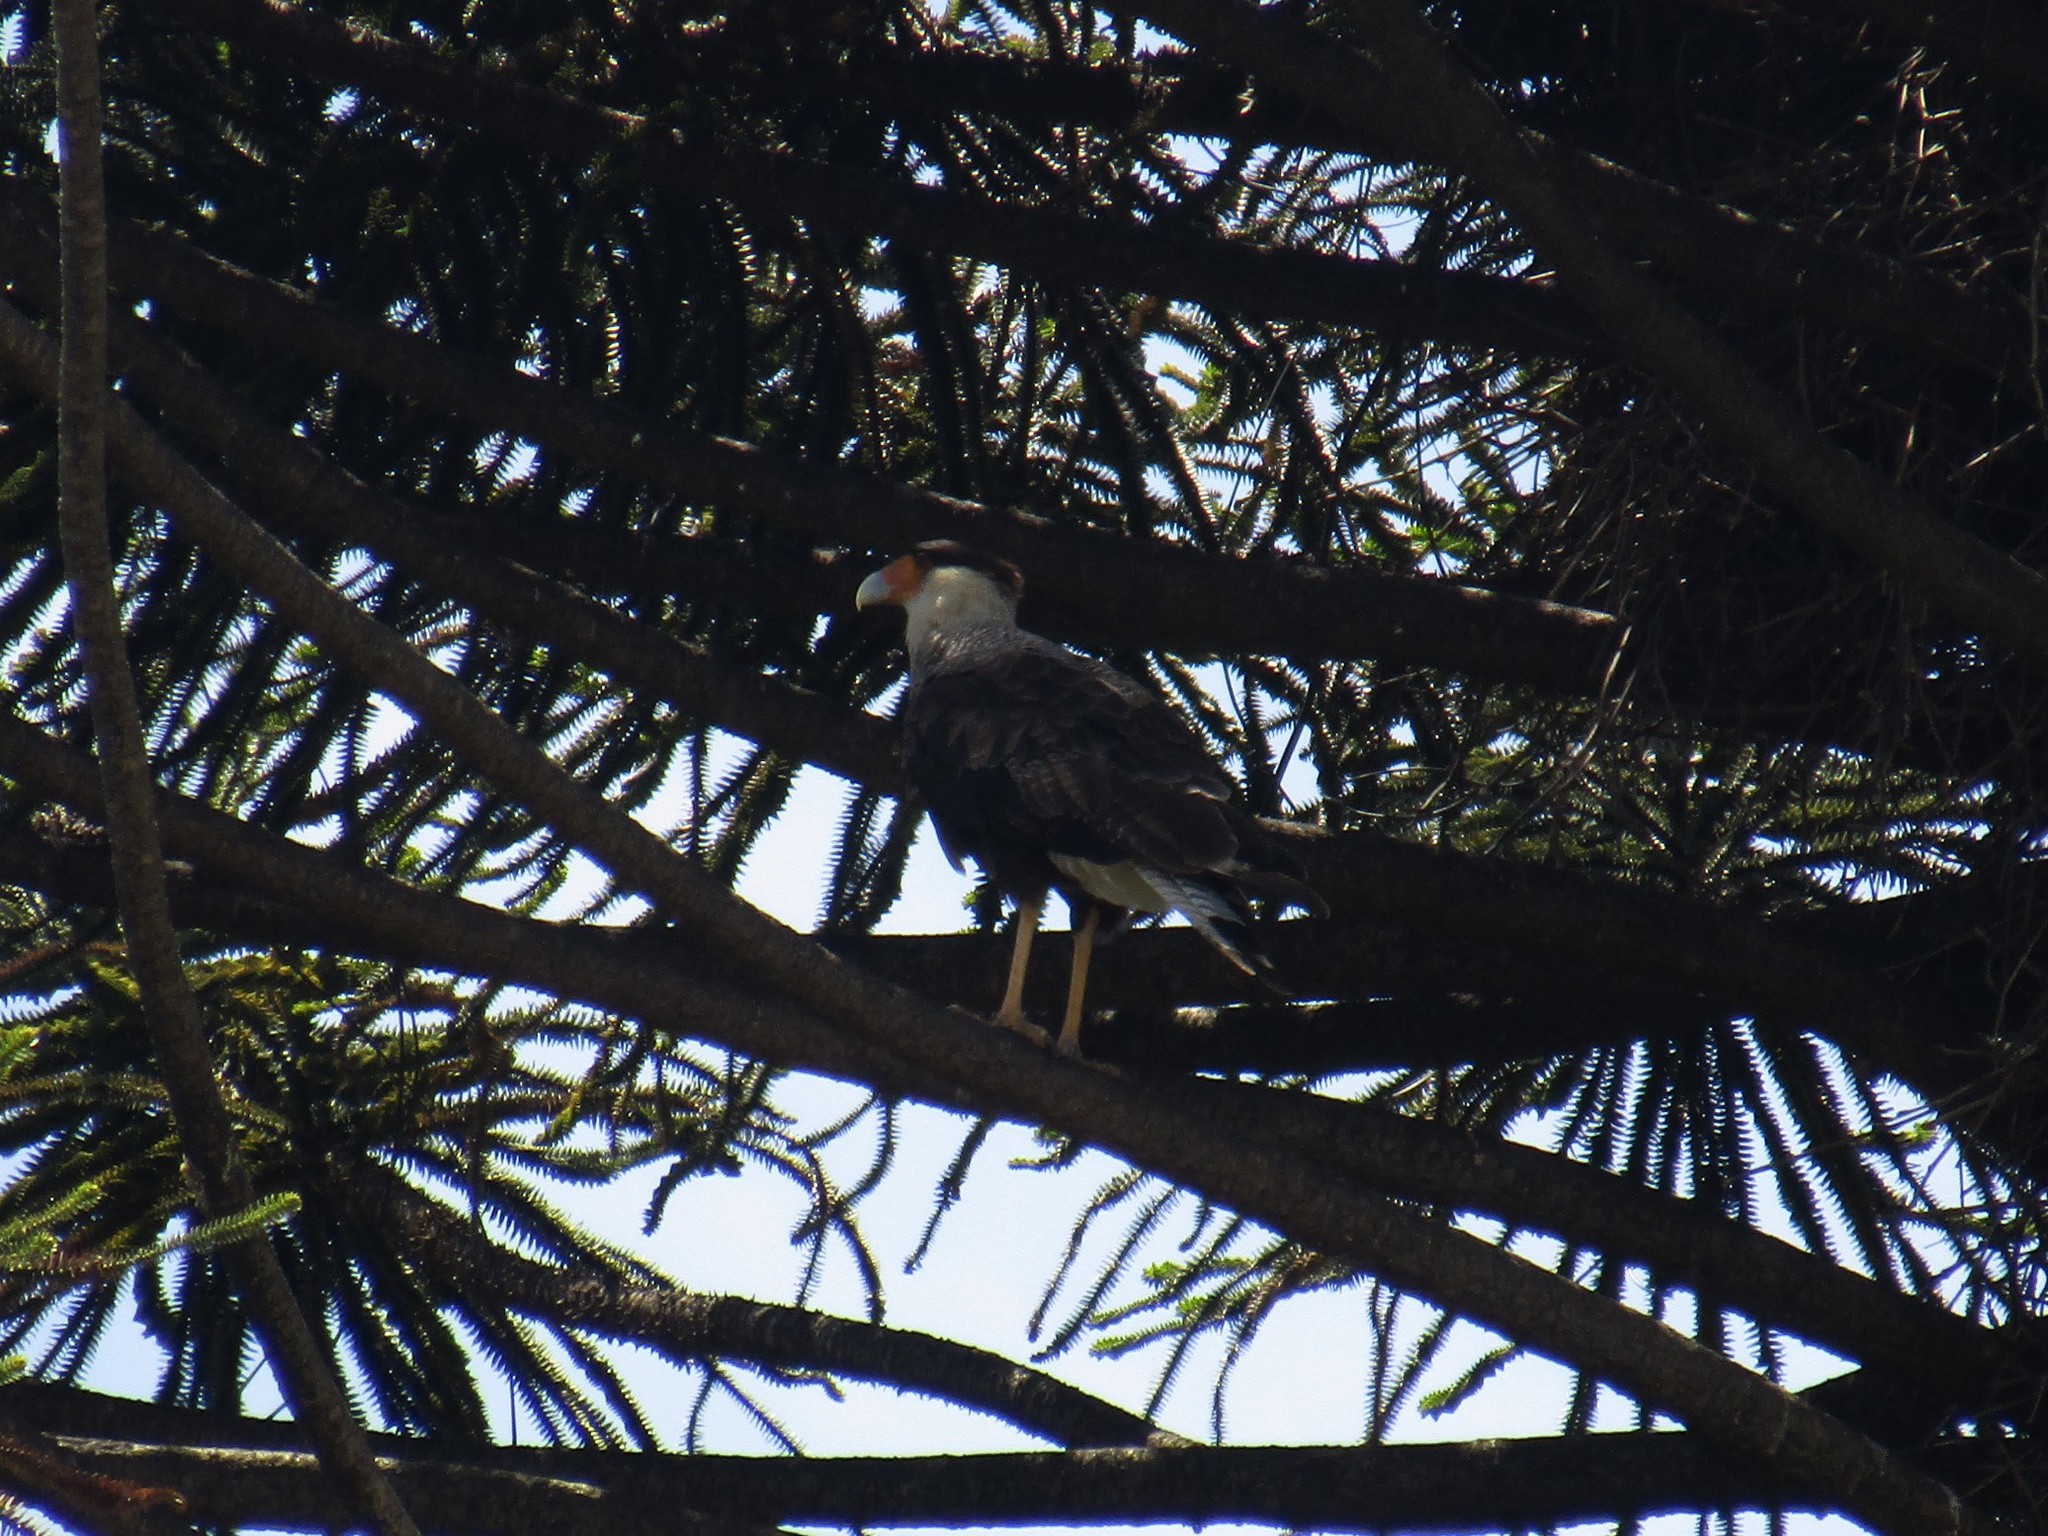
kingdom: Animalia
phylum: Chordata
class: Aves
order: Falconiformes
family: Falconidae
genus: Caracara
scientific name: Caracara plancus
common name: Southern caracara
